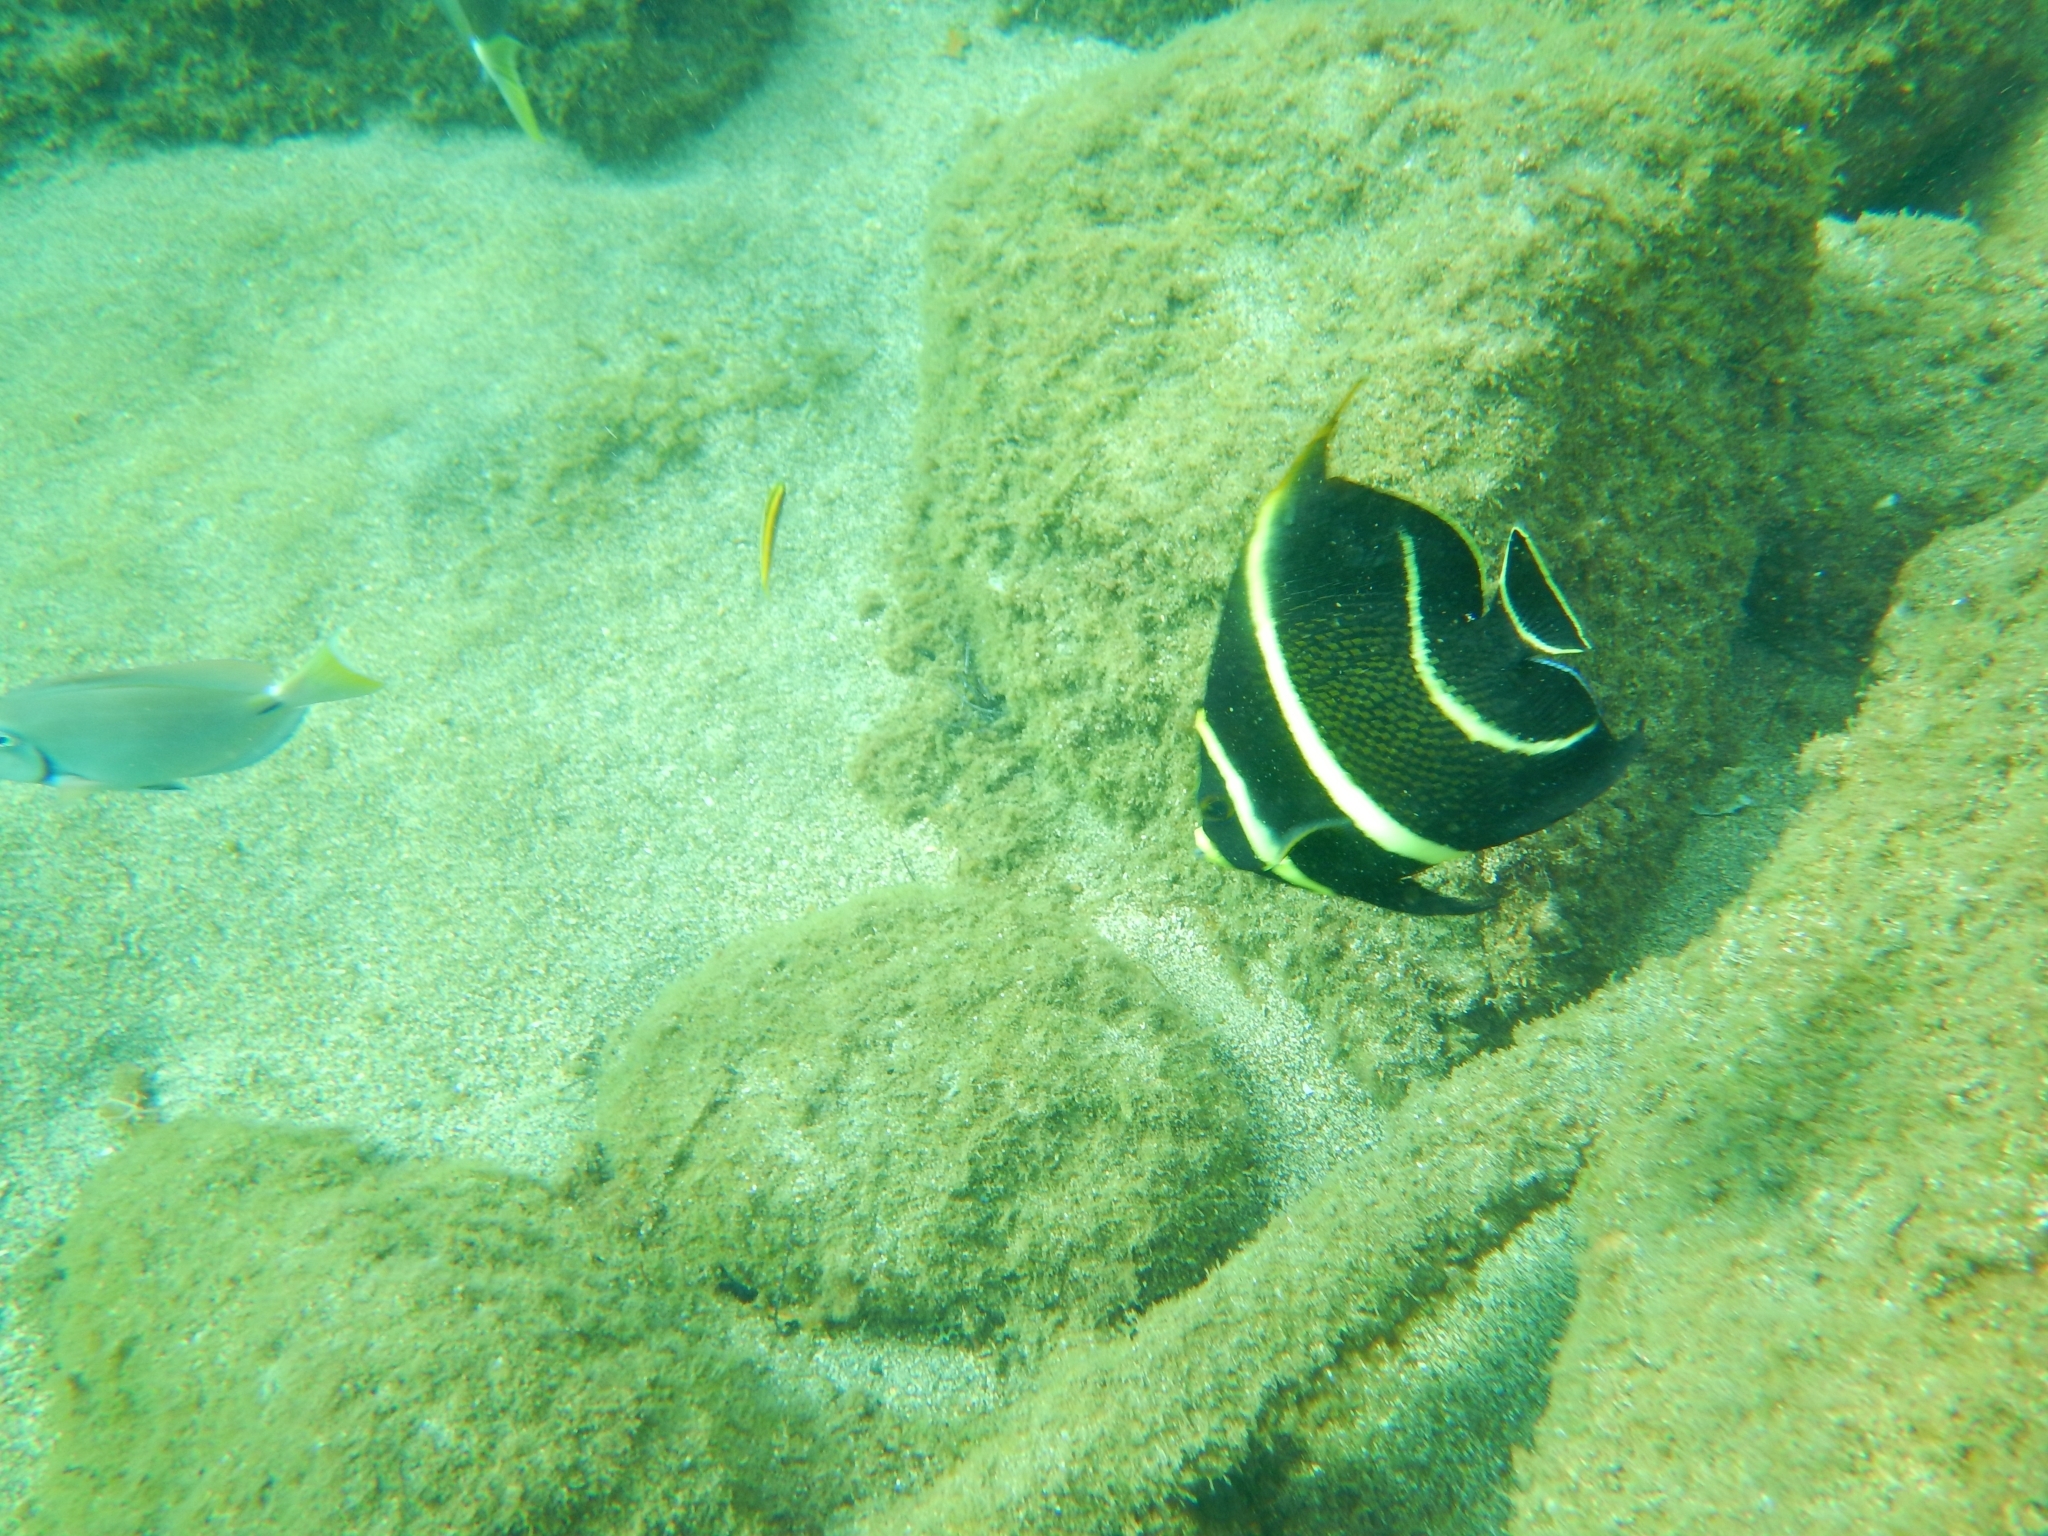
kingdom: Animalia
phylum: Chordata
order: Perciformes
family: Pomacanthidae
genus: Pomacanthus
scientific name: Pomacanthus paru
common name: French angelfish
